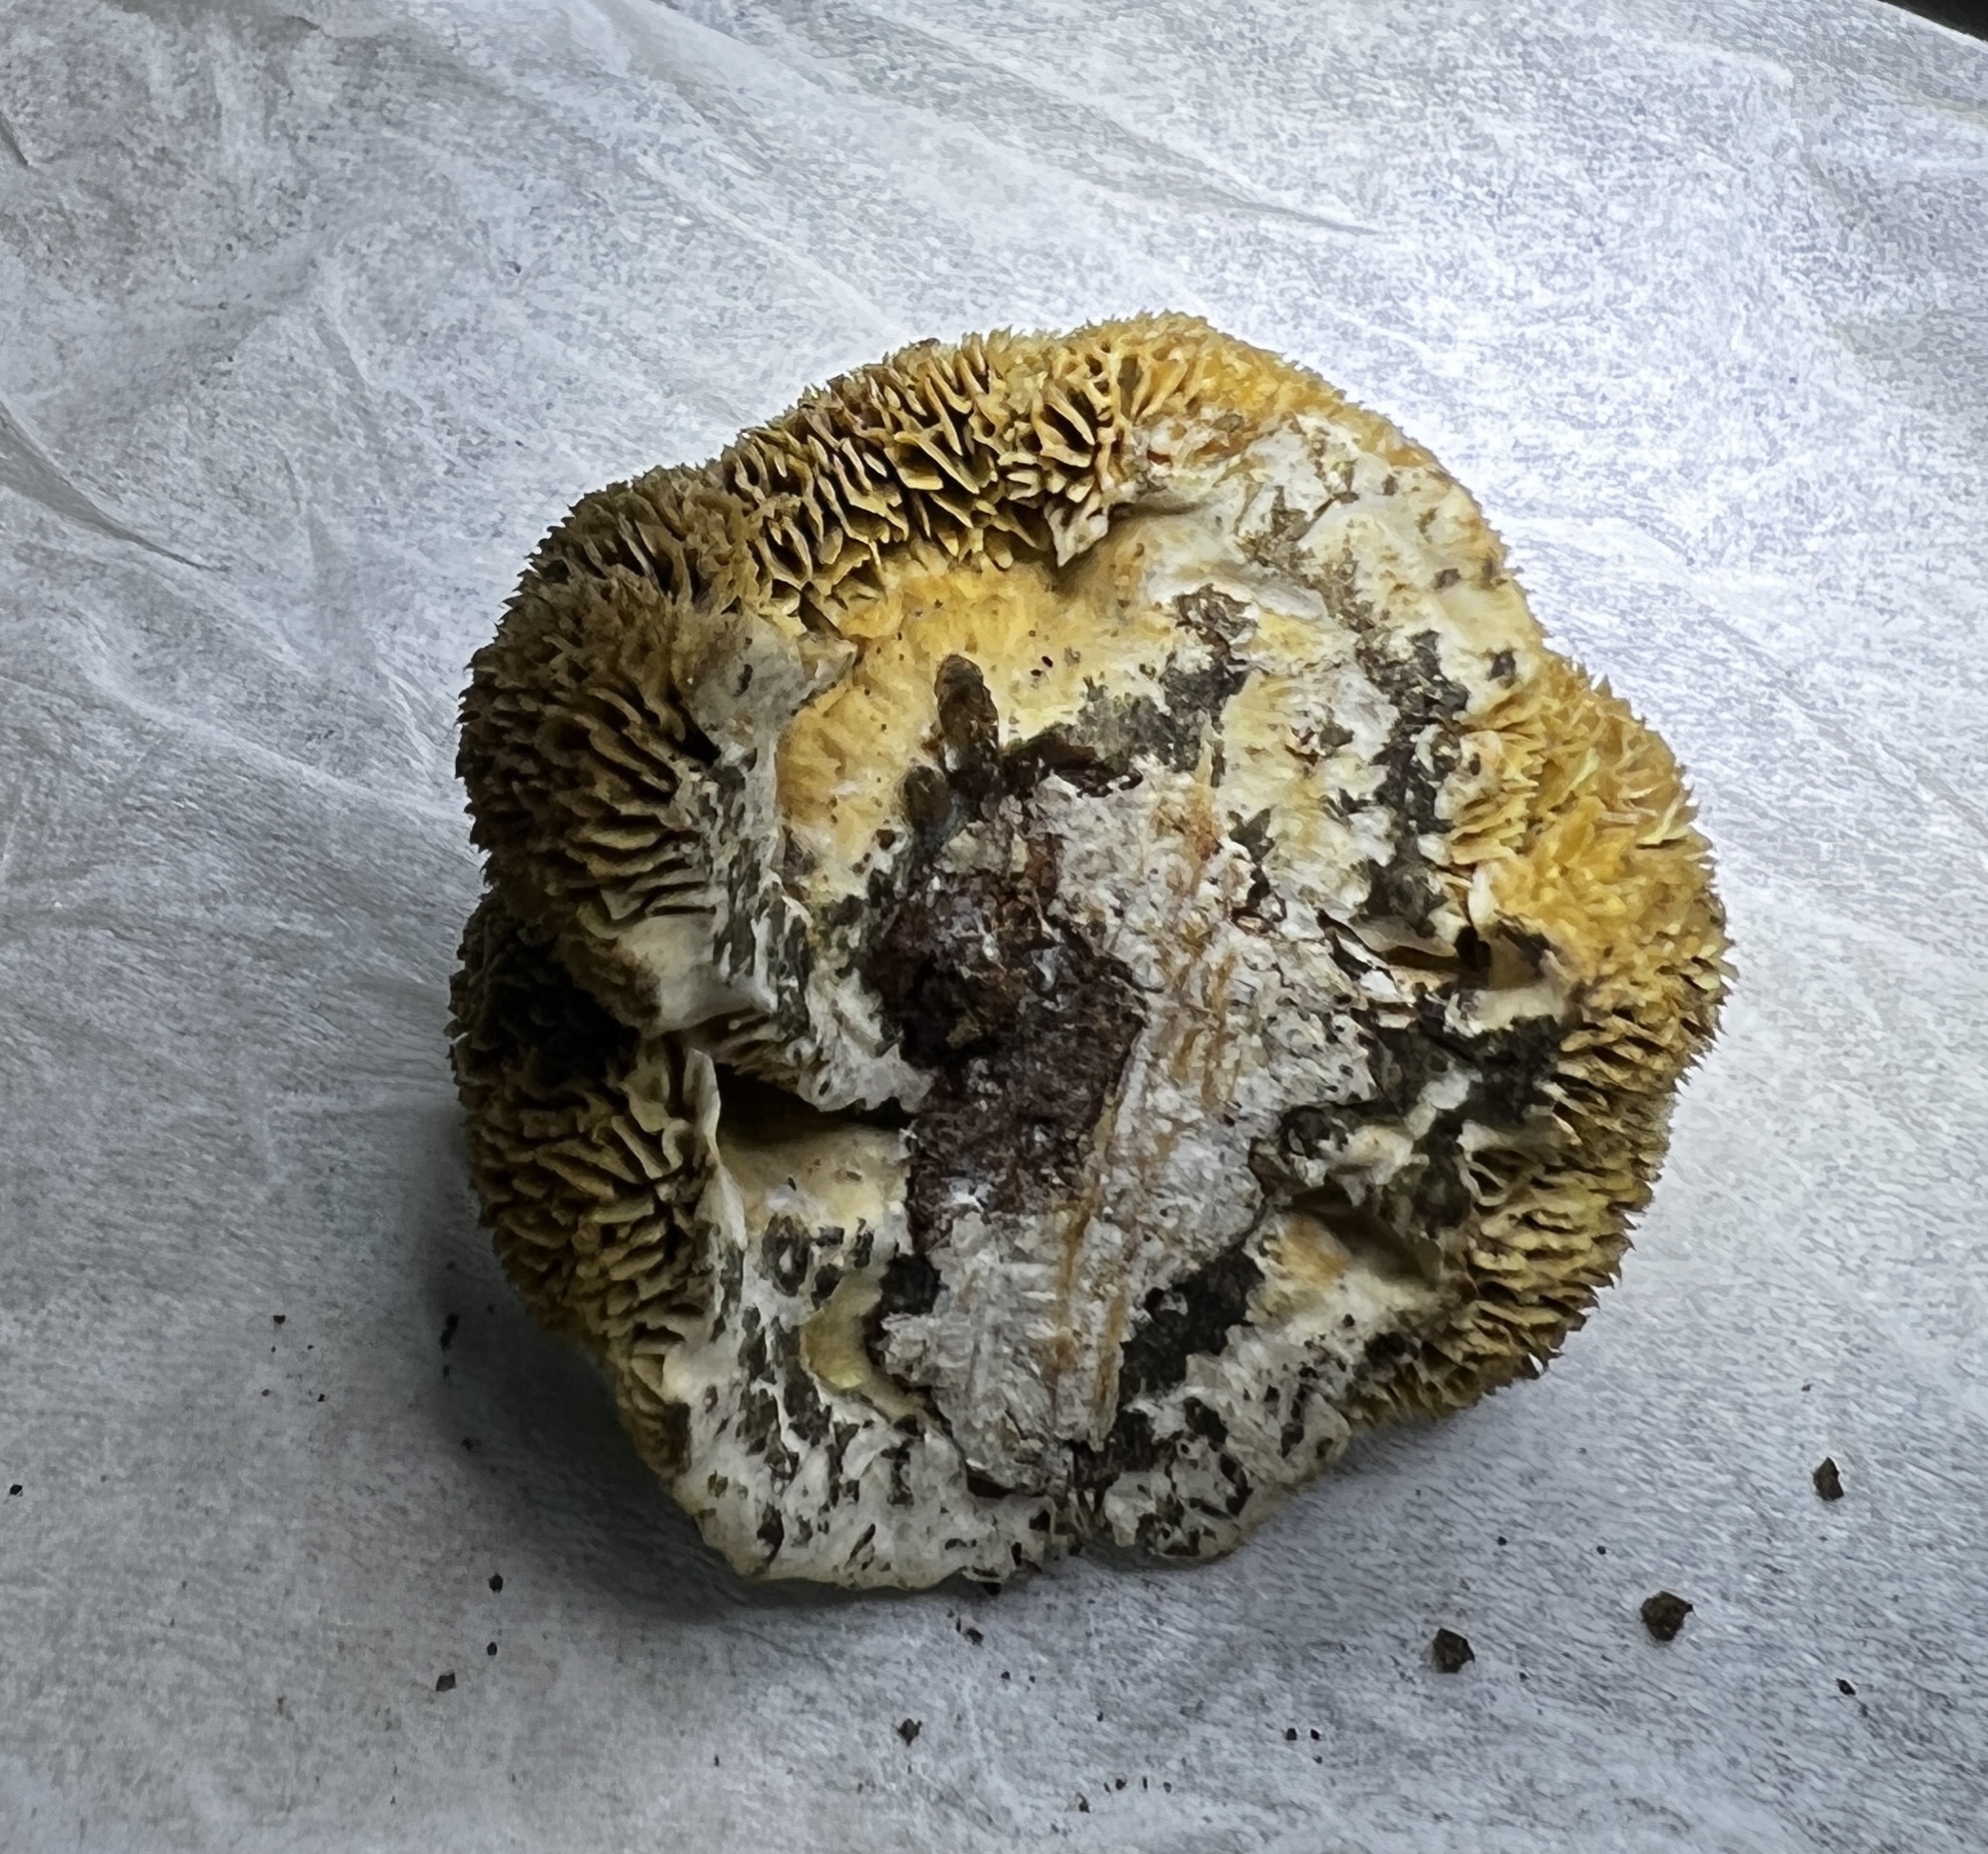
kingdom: Fungi
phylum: Basidiomycota
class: Agaricomycetes
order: Polyporales
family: Polyporaceae
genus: Daedaleopsis
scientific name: Daedaleopsis confragosa
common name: Blushing bracket
